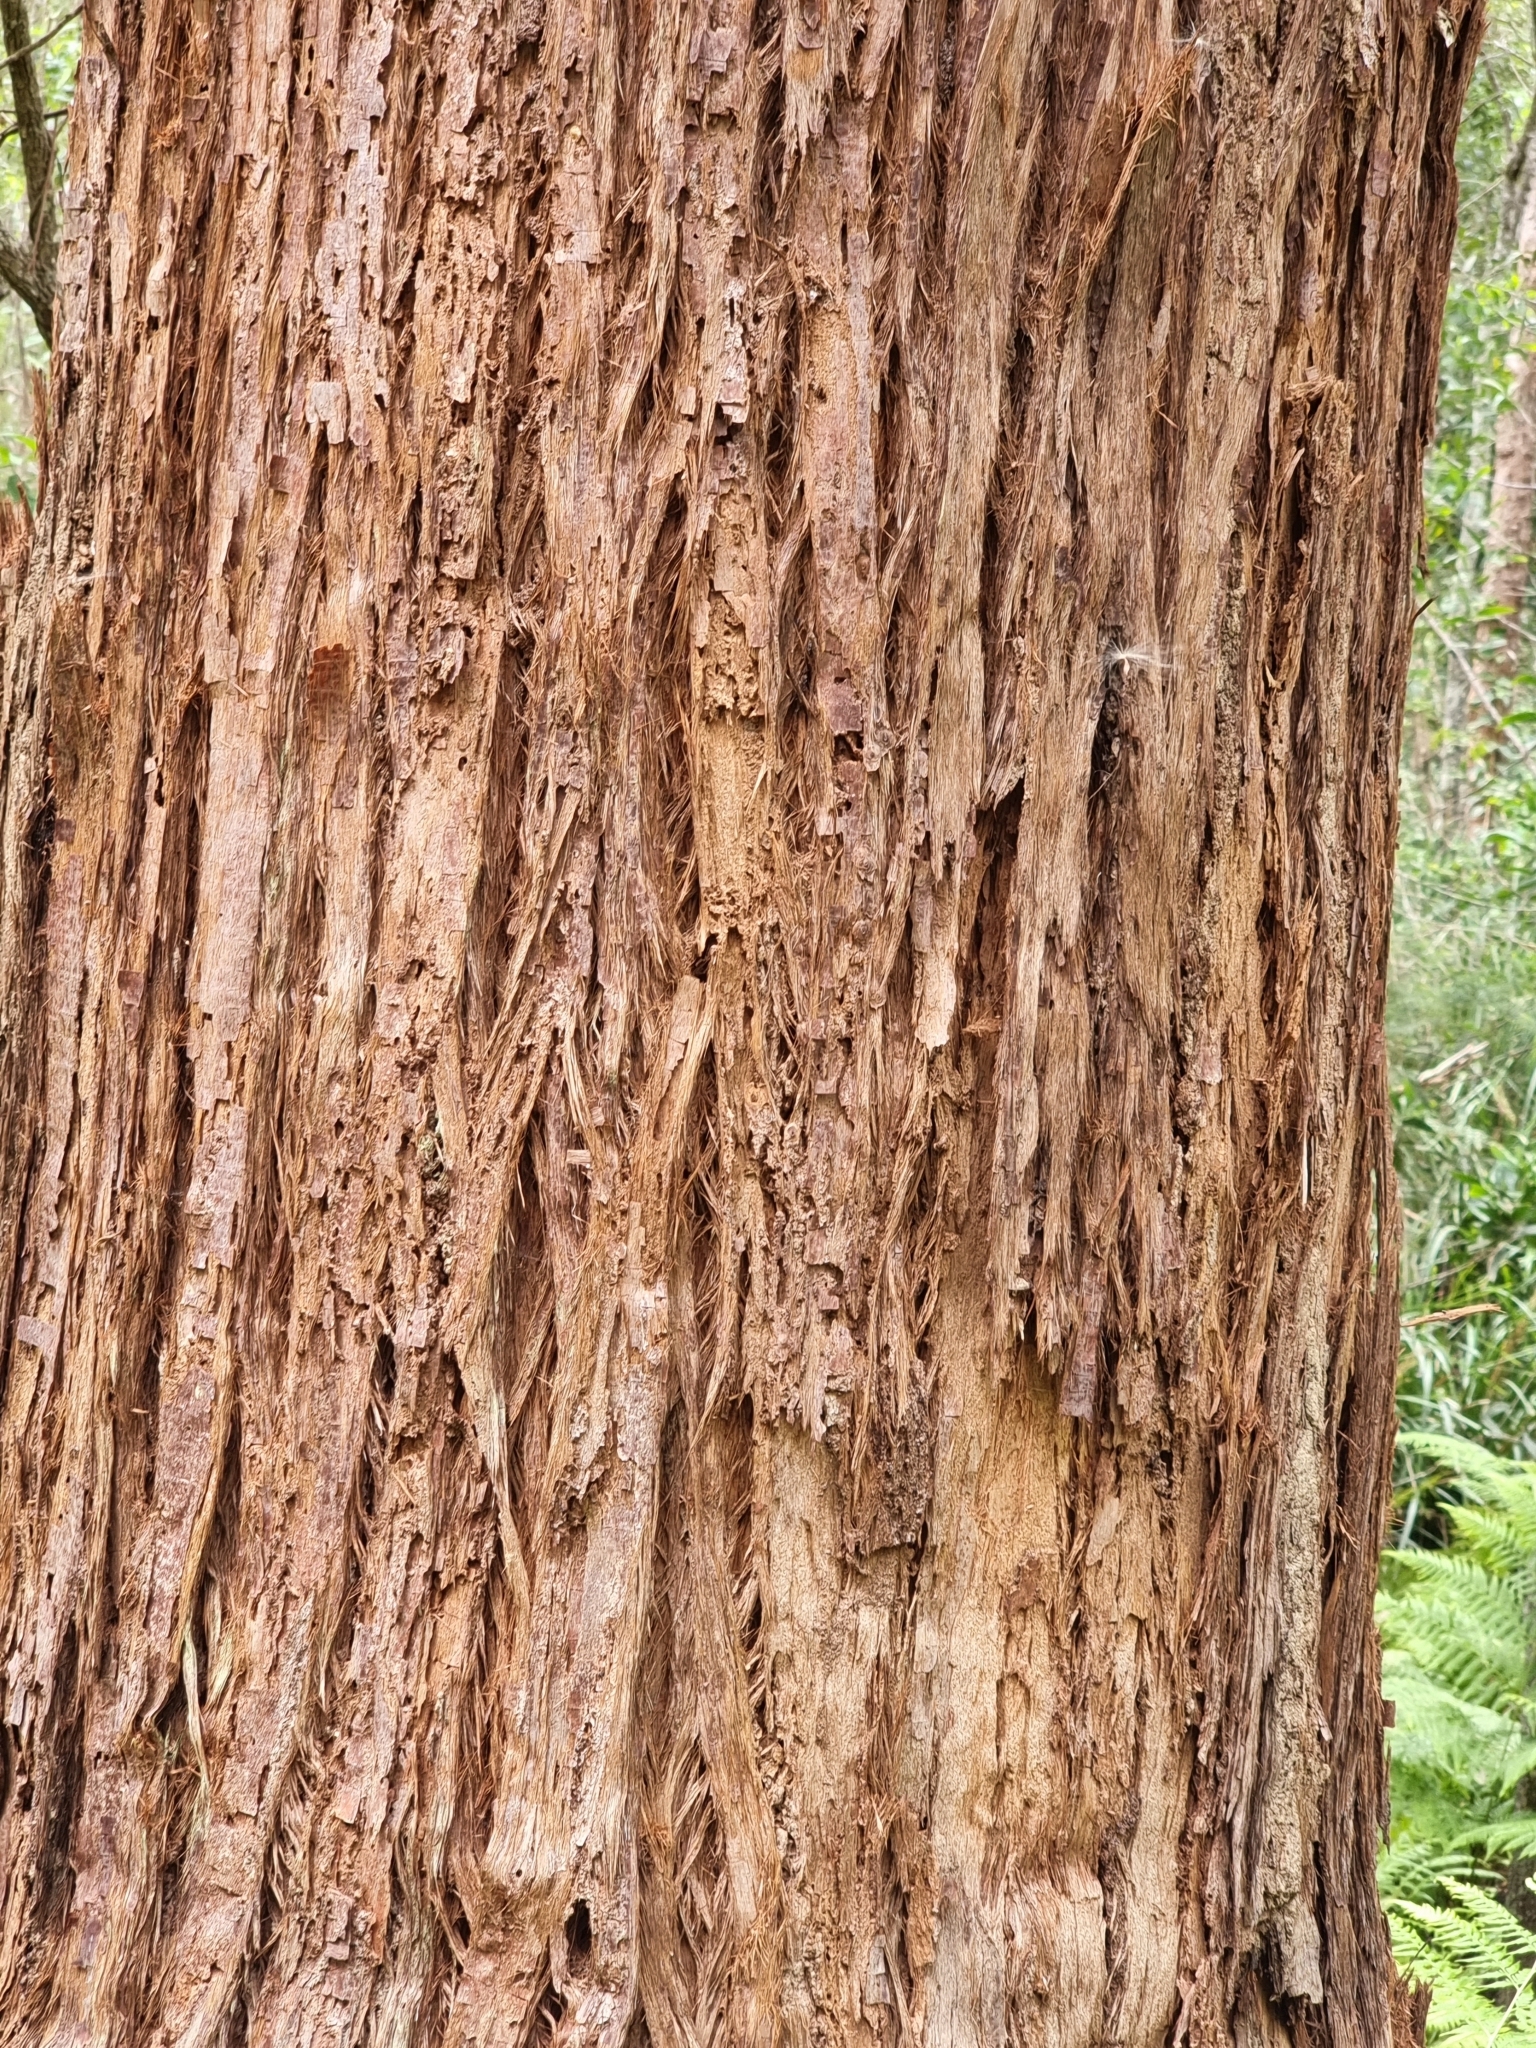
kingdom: Plantae
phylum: Tracheophyta
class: Magnoliopsida
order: Myrtales
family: Myrtaceae
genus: Eucalyptus
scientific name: Eucalyptus microcorys
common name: Tallowwood
